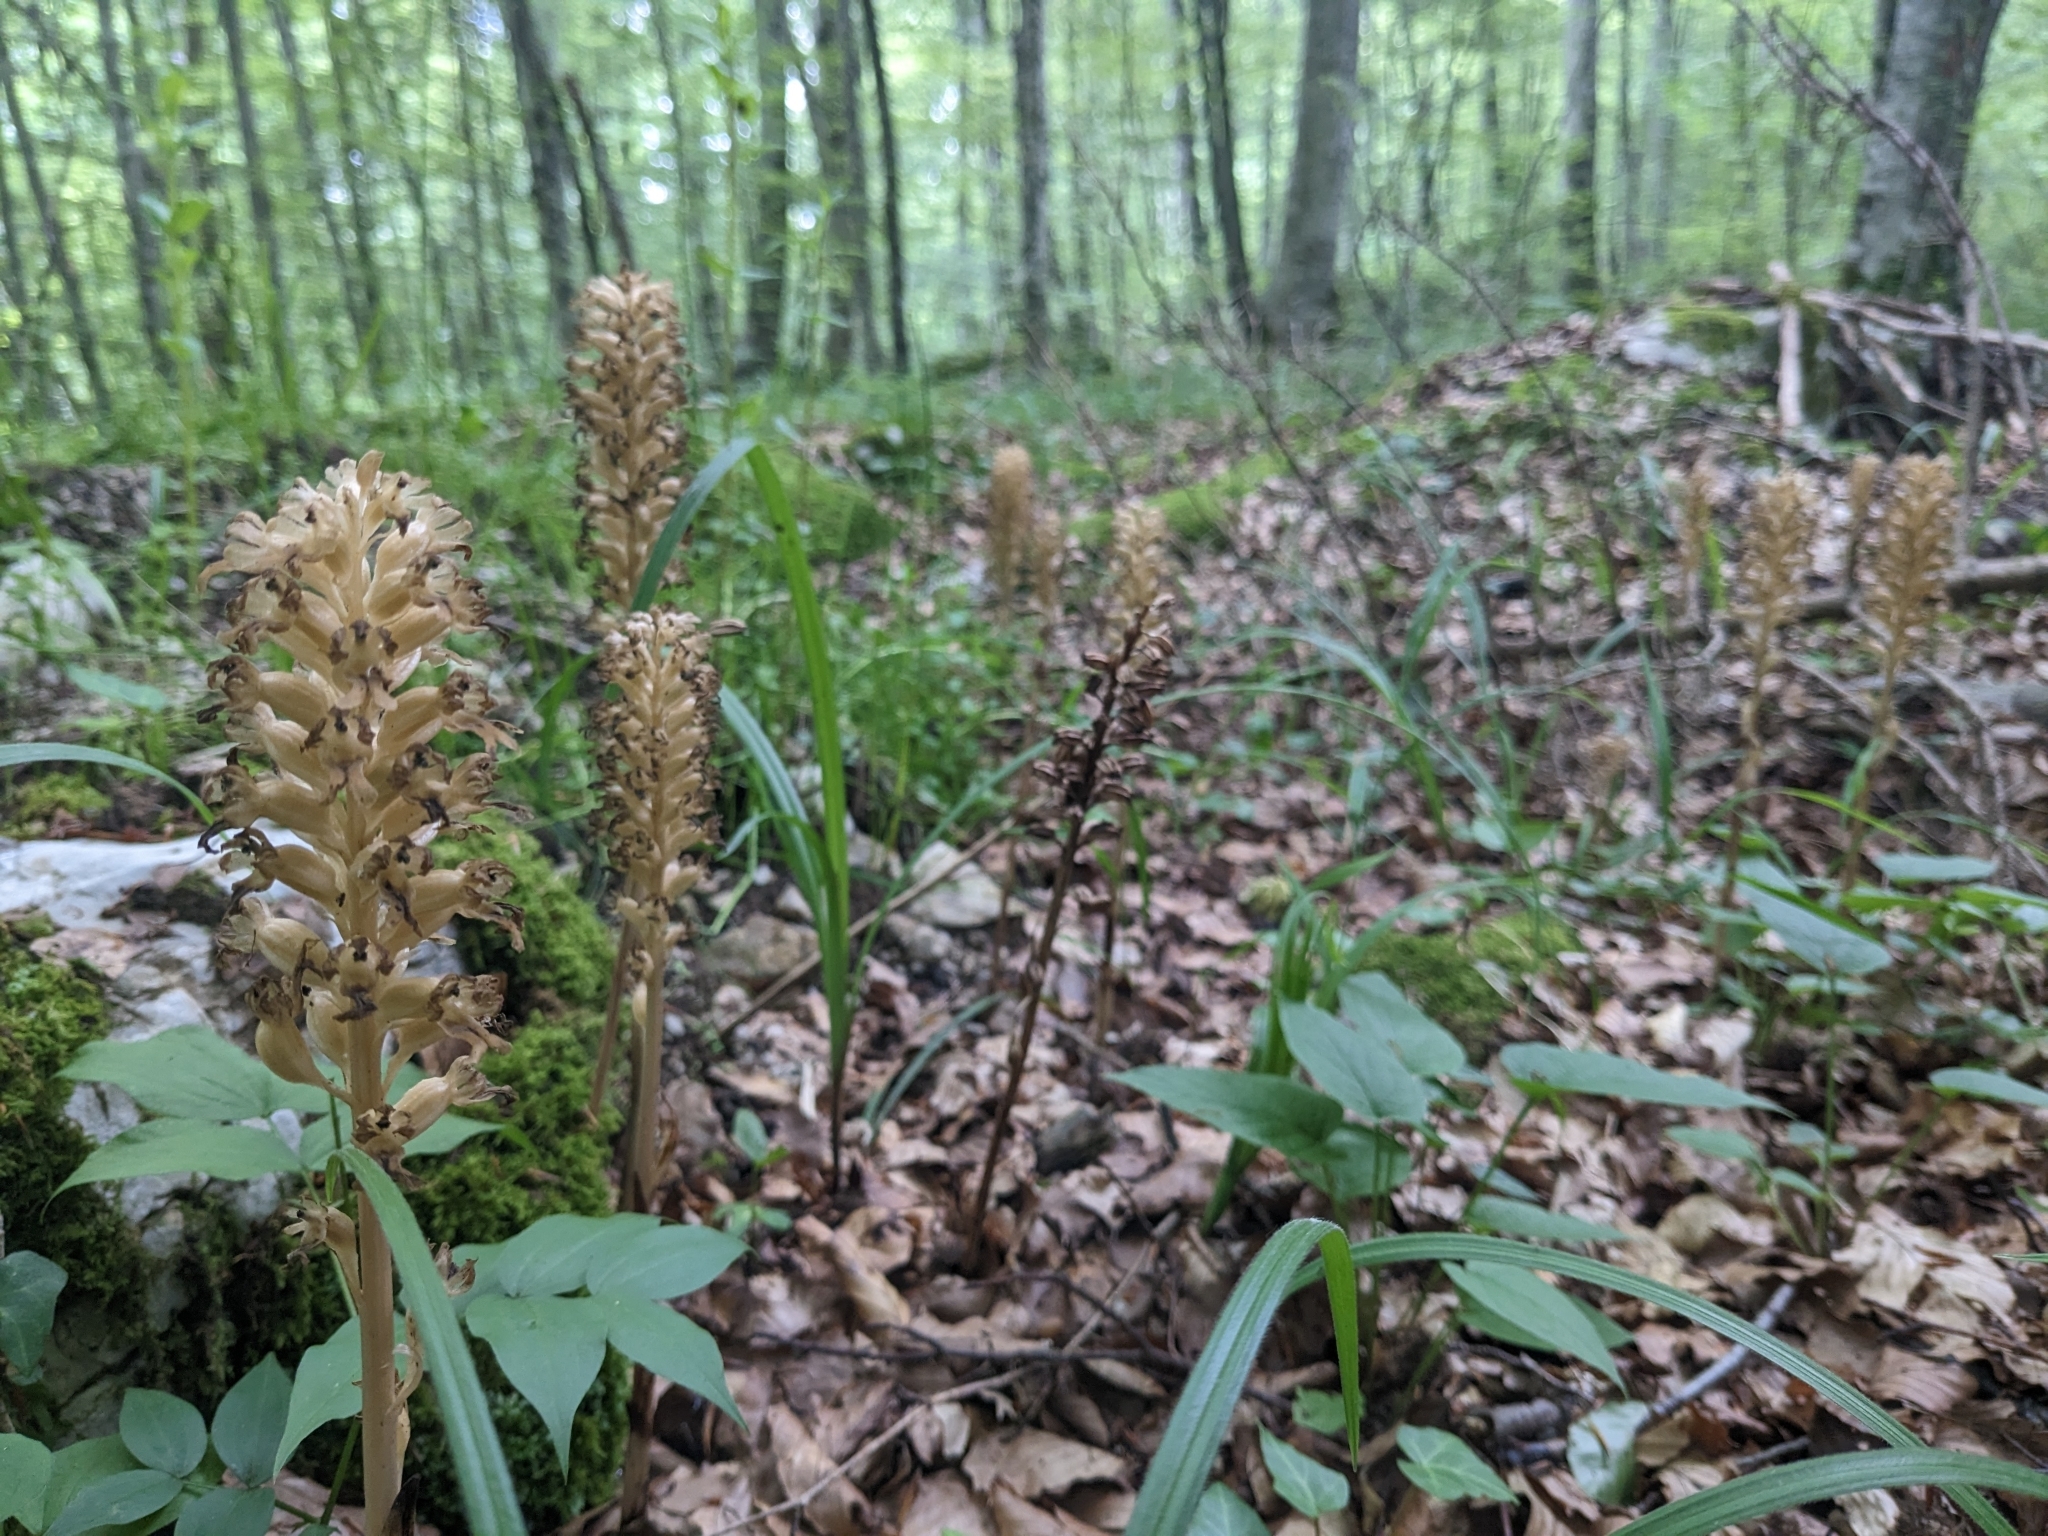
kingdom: Plantae
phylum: Tracheophyta
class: Liliopsida
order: Asparagales
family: Orchidaceae
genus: Neottia
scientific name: Neottia nidus-avis
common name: Bird's-nest orchid
